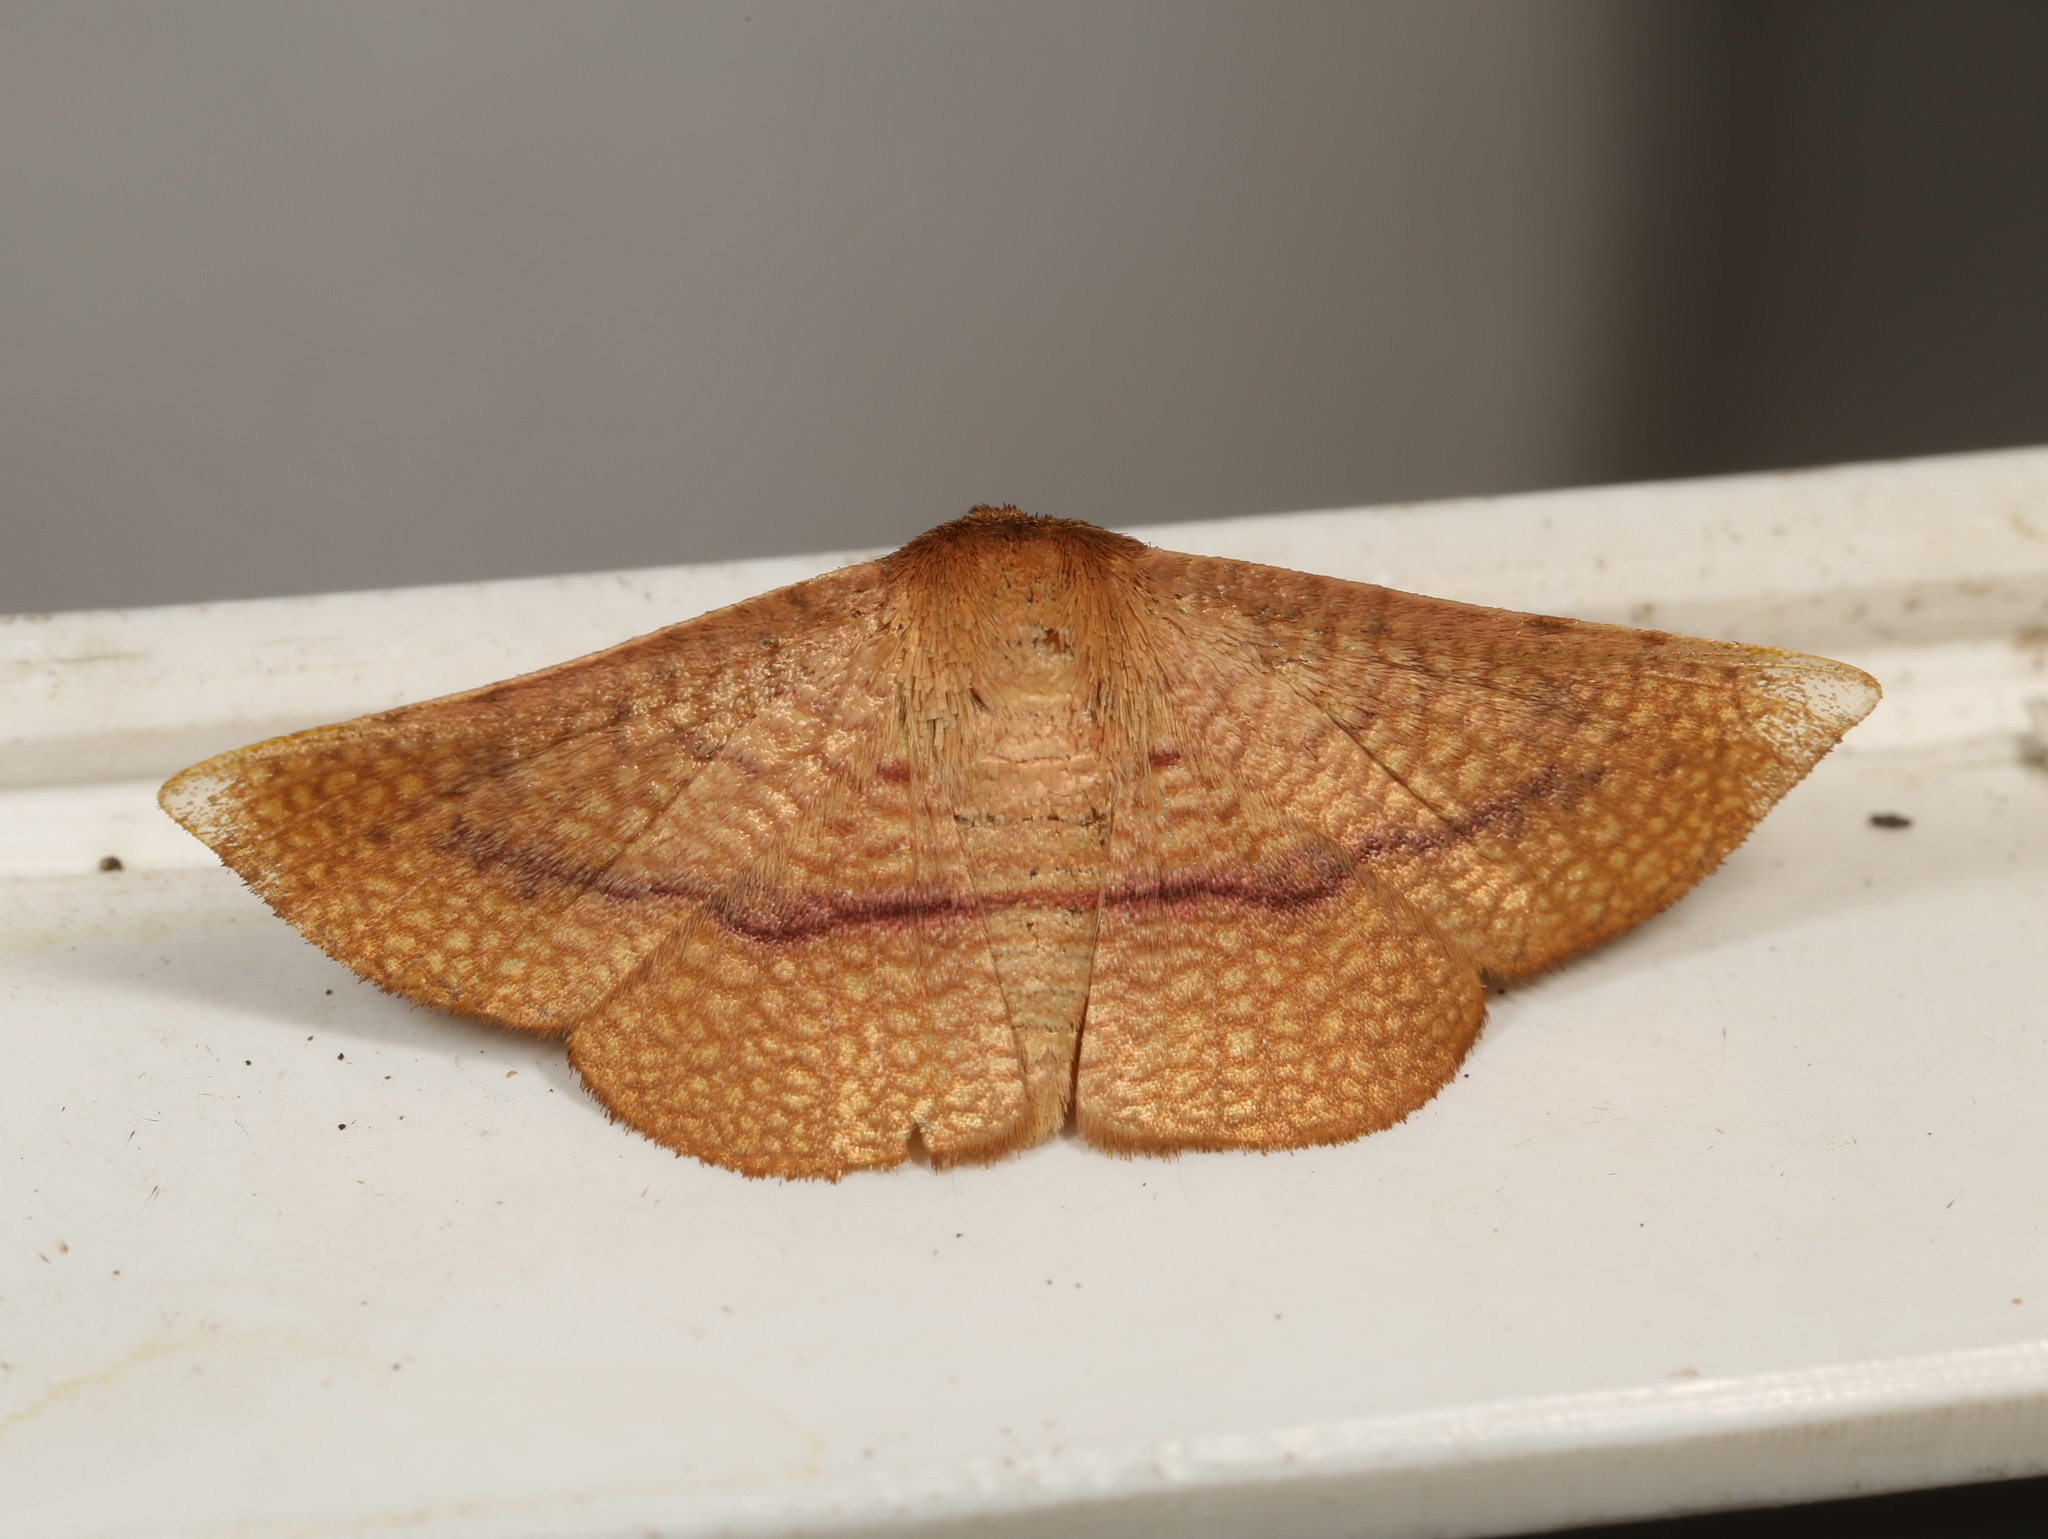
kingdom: Animalia
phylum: Arthropoda
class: Insecta
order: Lepidoptera
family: Thyrididae
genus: Aglaopus
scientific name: Aglaopus pyrrhata
